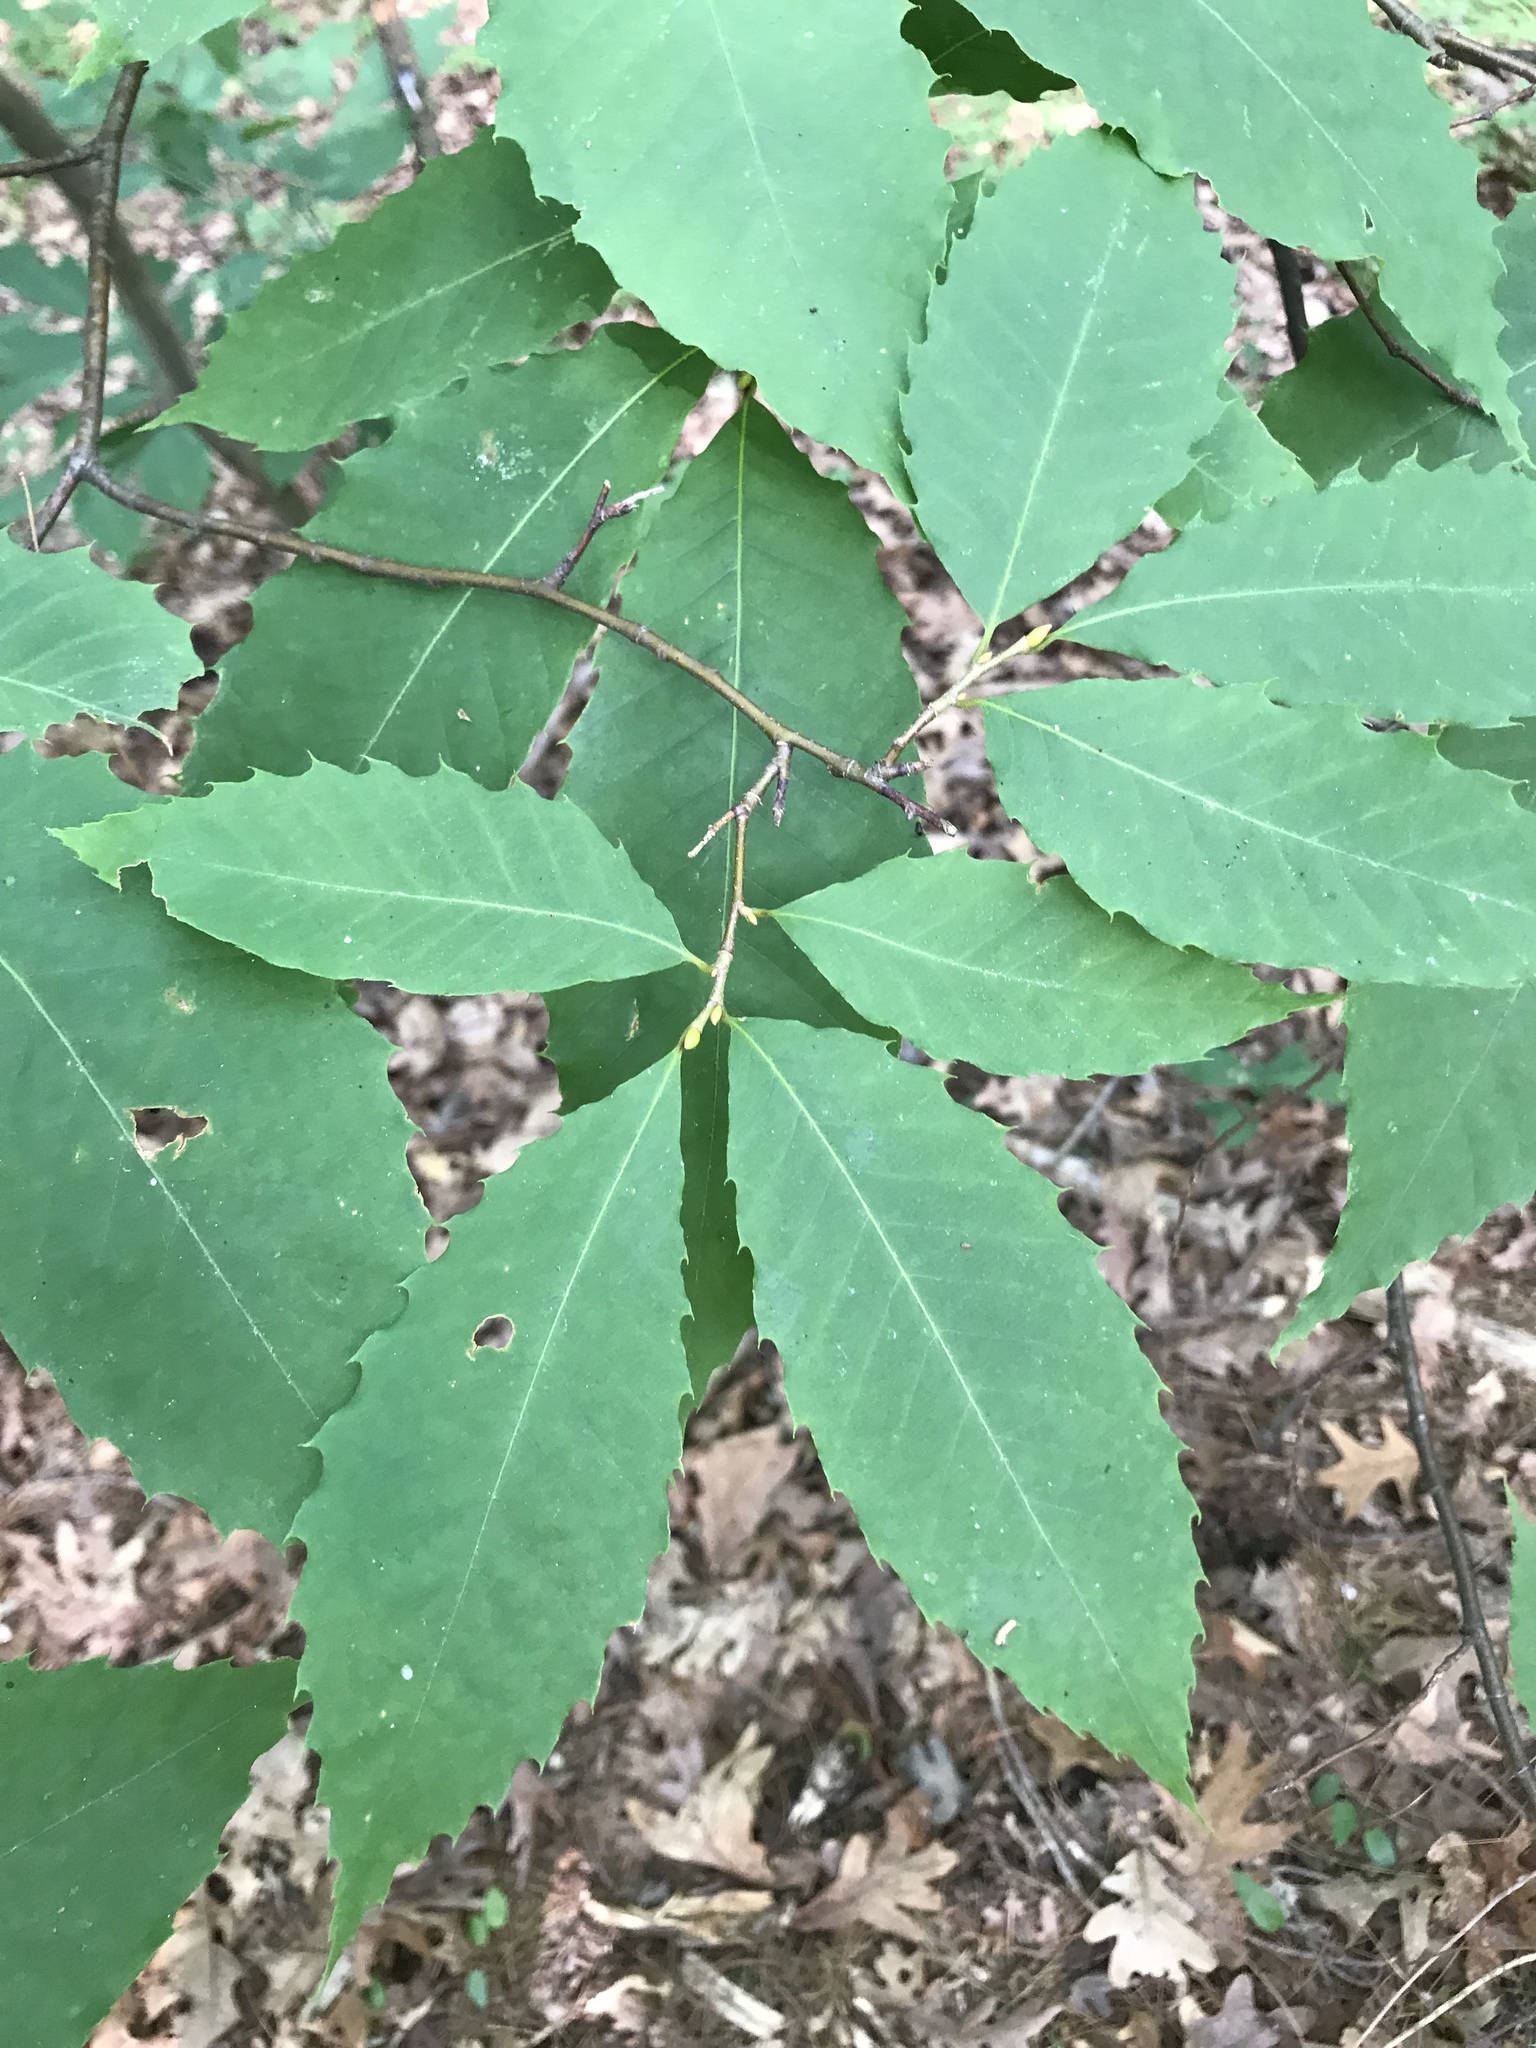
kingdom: Plantae
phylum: Tracheophyta
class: Magnoliopsida
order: Fagales
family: Fagaceae
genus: Castanea
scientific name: Castanea dentata
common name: American chestnut
